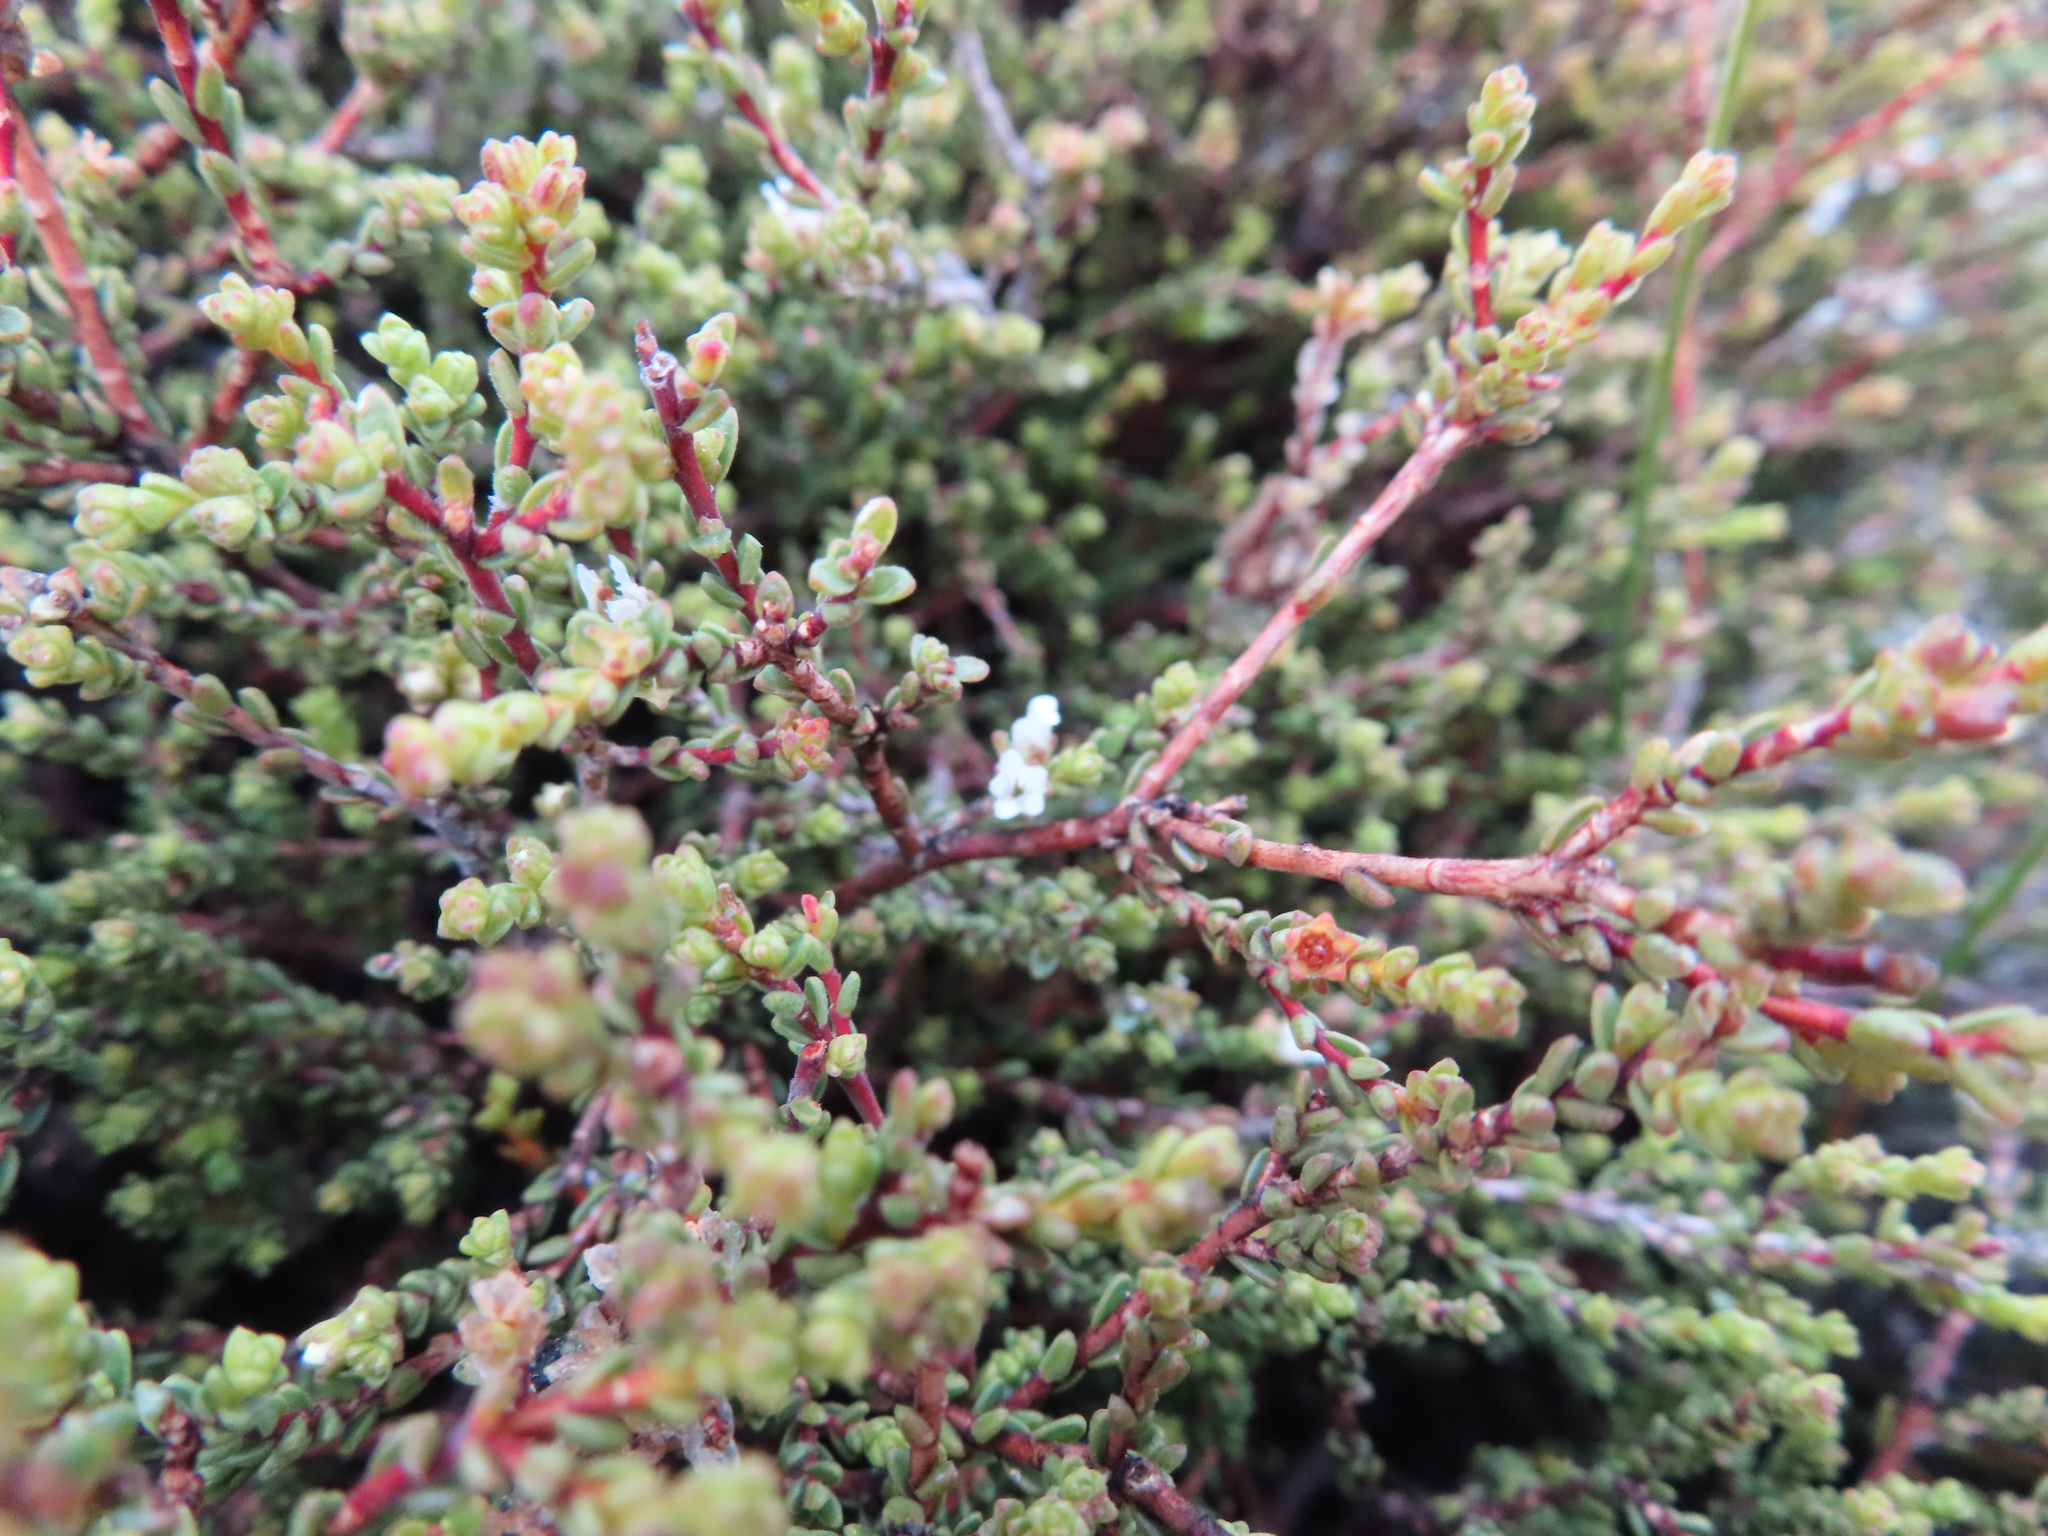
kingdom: Plantae
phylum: Tracheophyta
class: Magnoliopsida
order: Sapindales
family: Rutaceae
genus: Euchaetis
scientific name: Euchaetis elsieae
